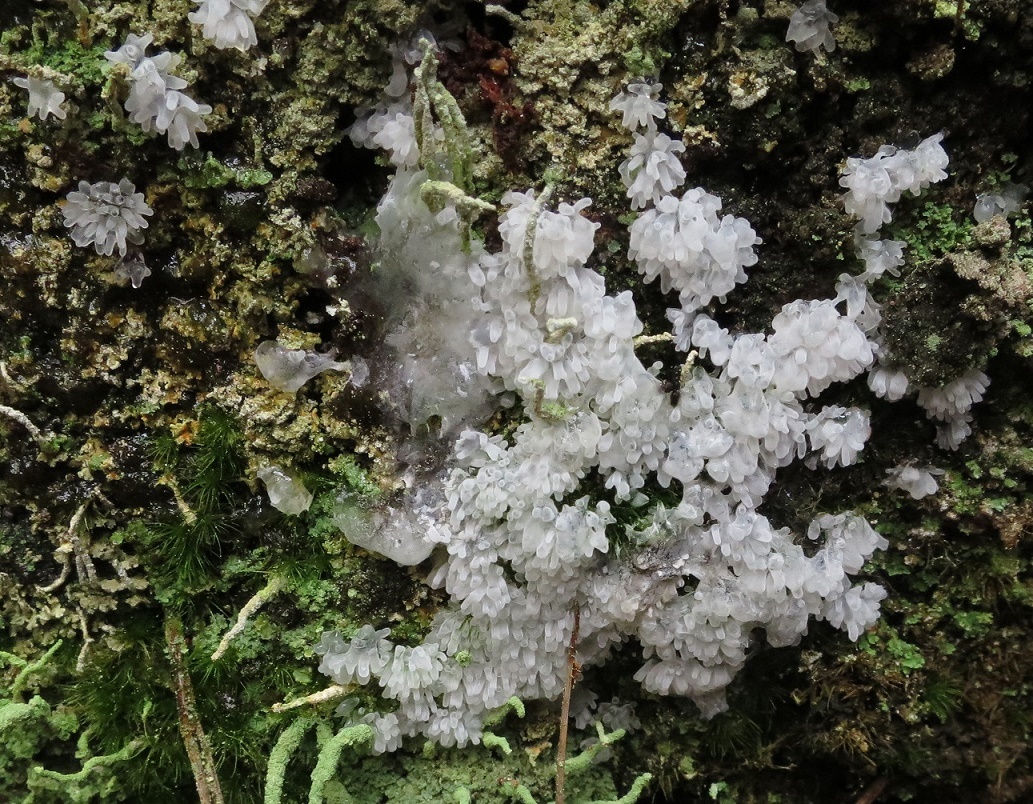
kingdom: Protozoa
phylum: Mycetozoa
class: Protosteliomycetes
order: Ceratiomyxales
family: Ceratiomyxaceae
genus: Ceratiomyxa
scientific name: Ceratiomyxa fruticulosa
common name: Honeycomb coral slime mold
